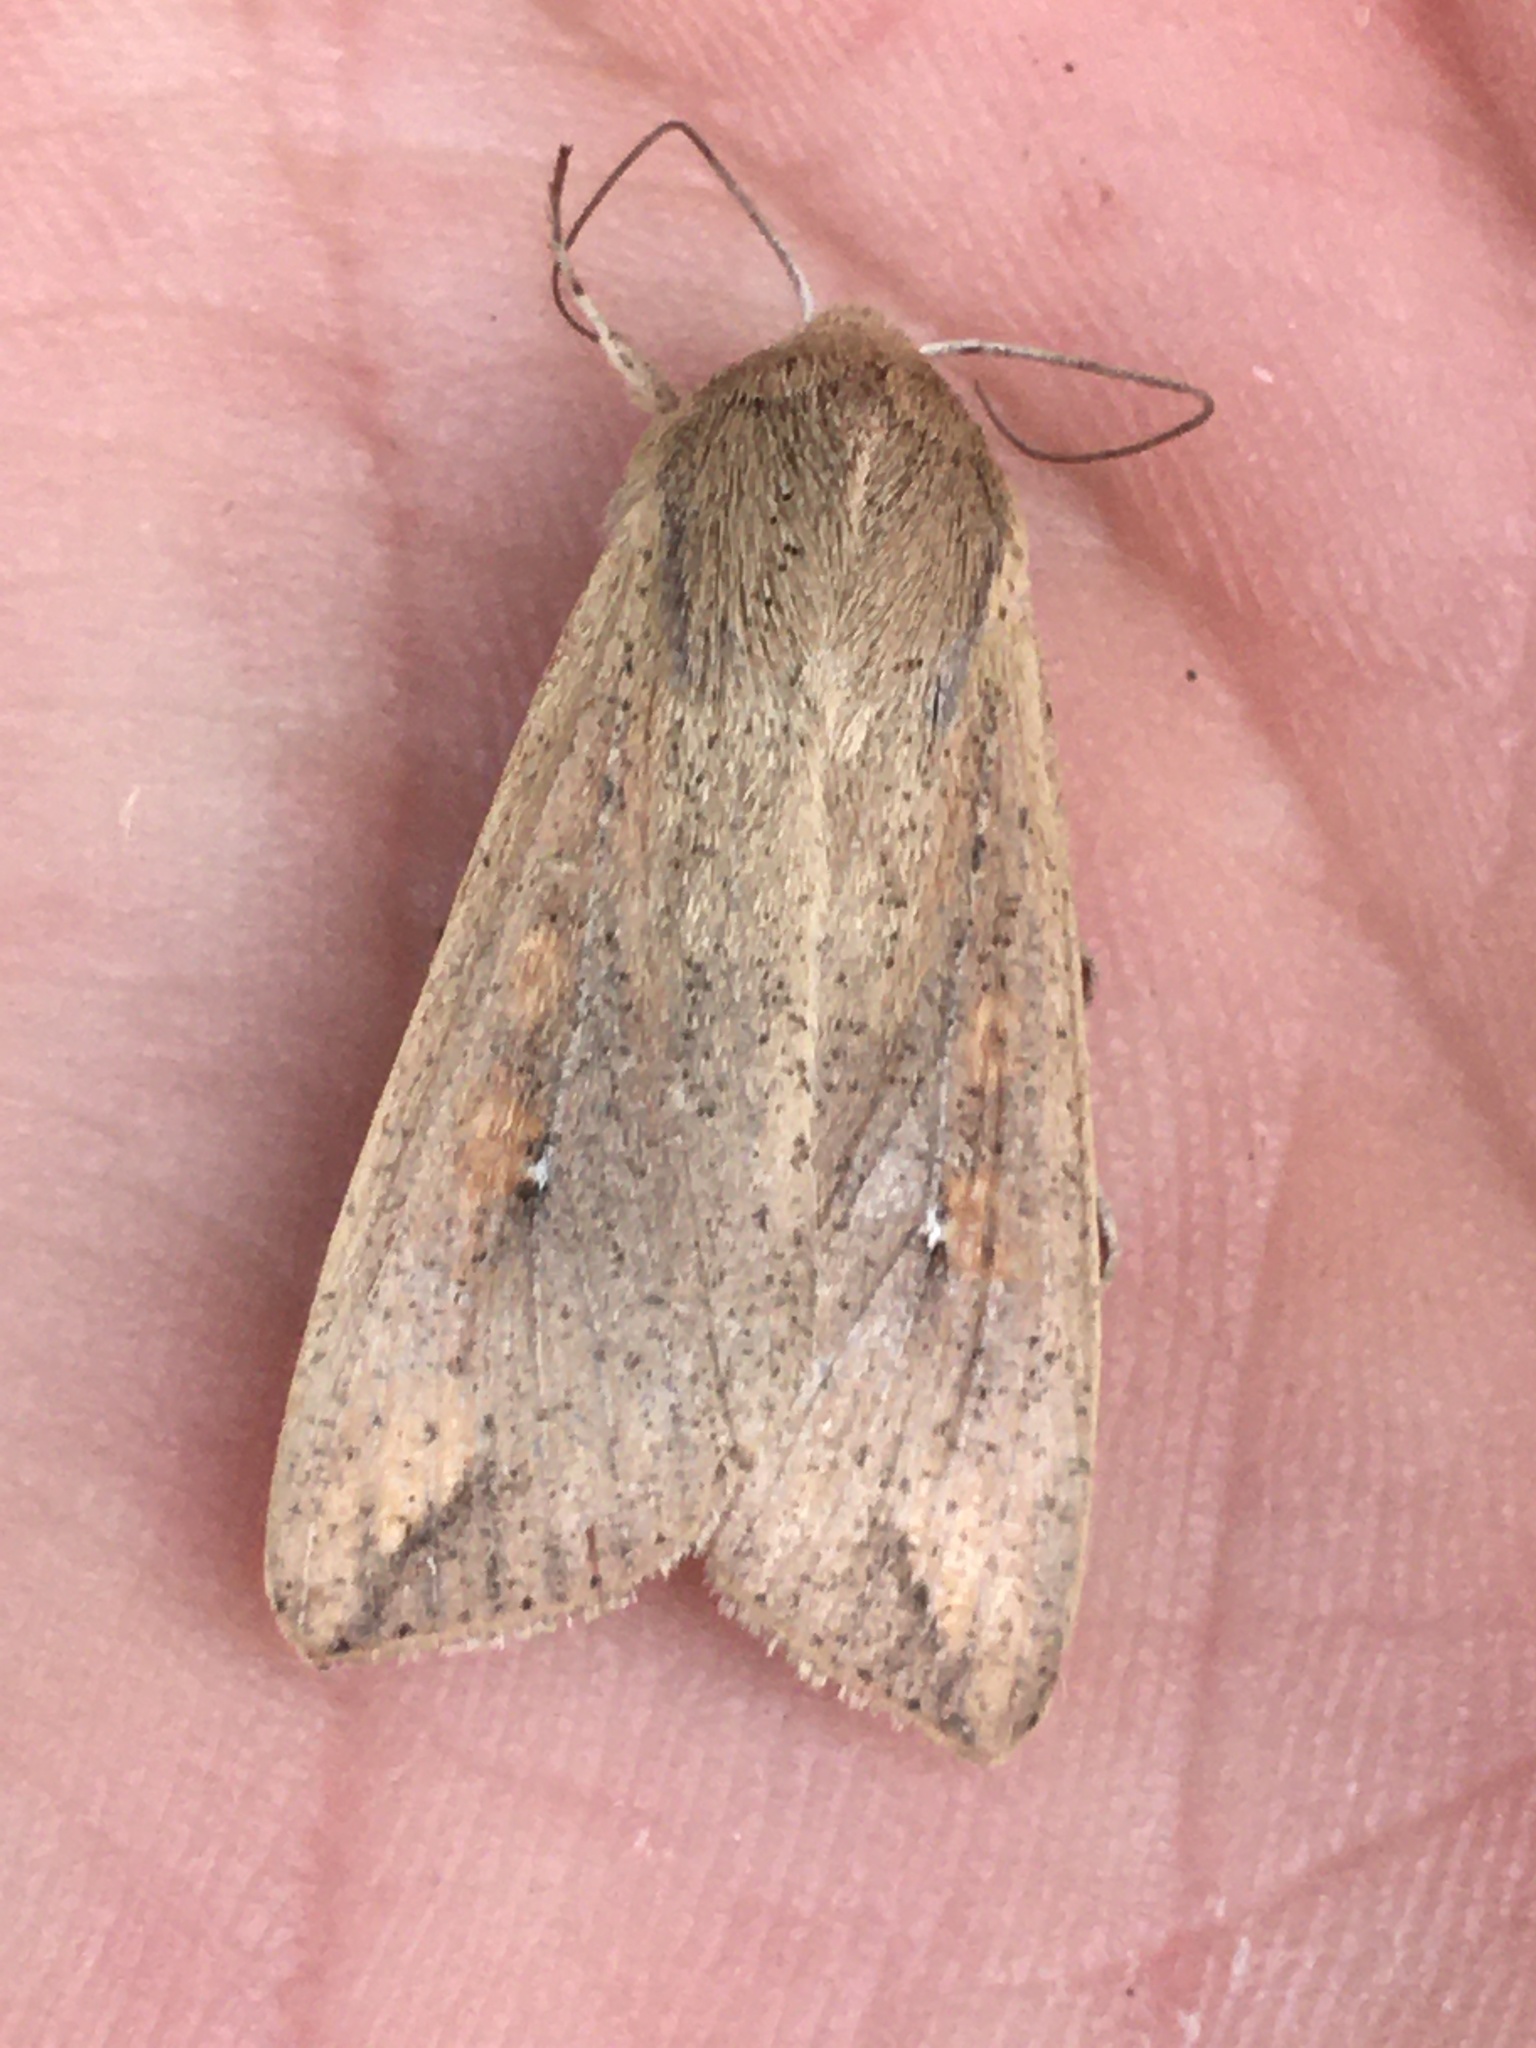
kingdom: Animalia
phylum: Arthropoda
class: Insecta
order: Lepidoptera
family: Noctuidae
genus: Mythimna
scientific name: Mythimna unipuncta
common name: White-speck
